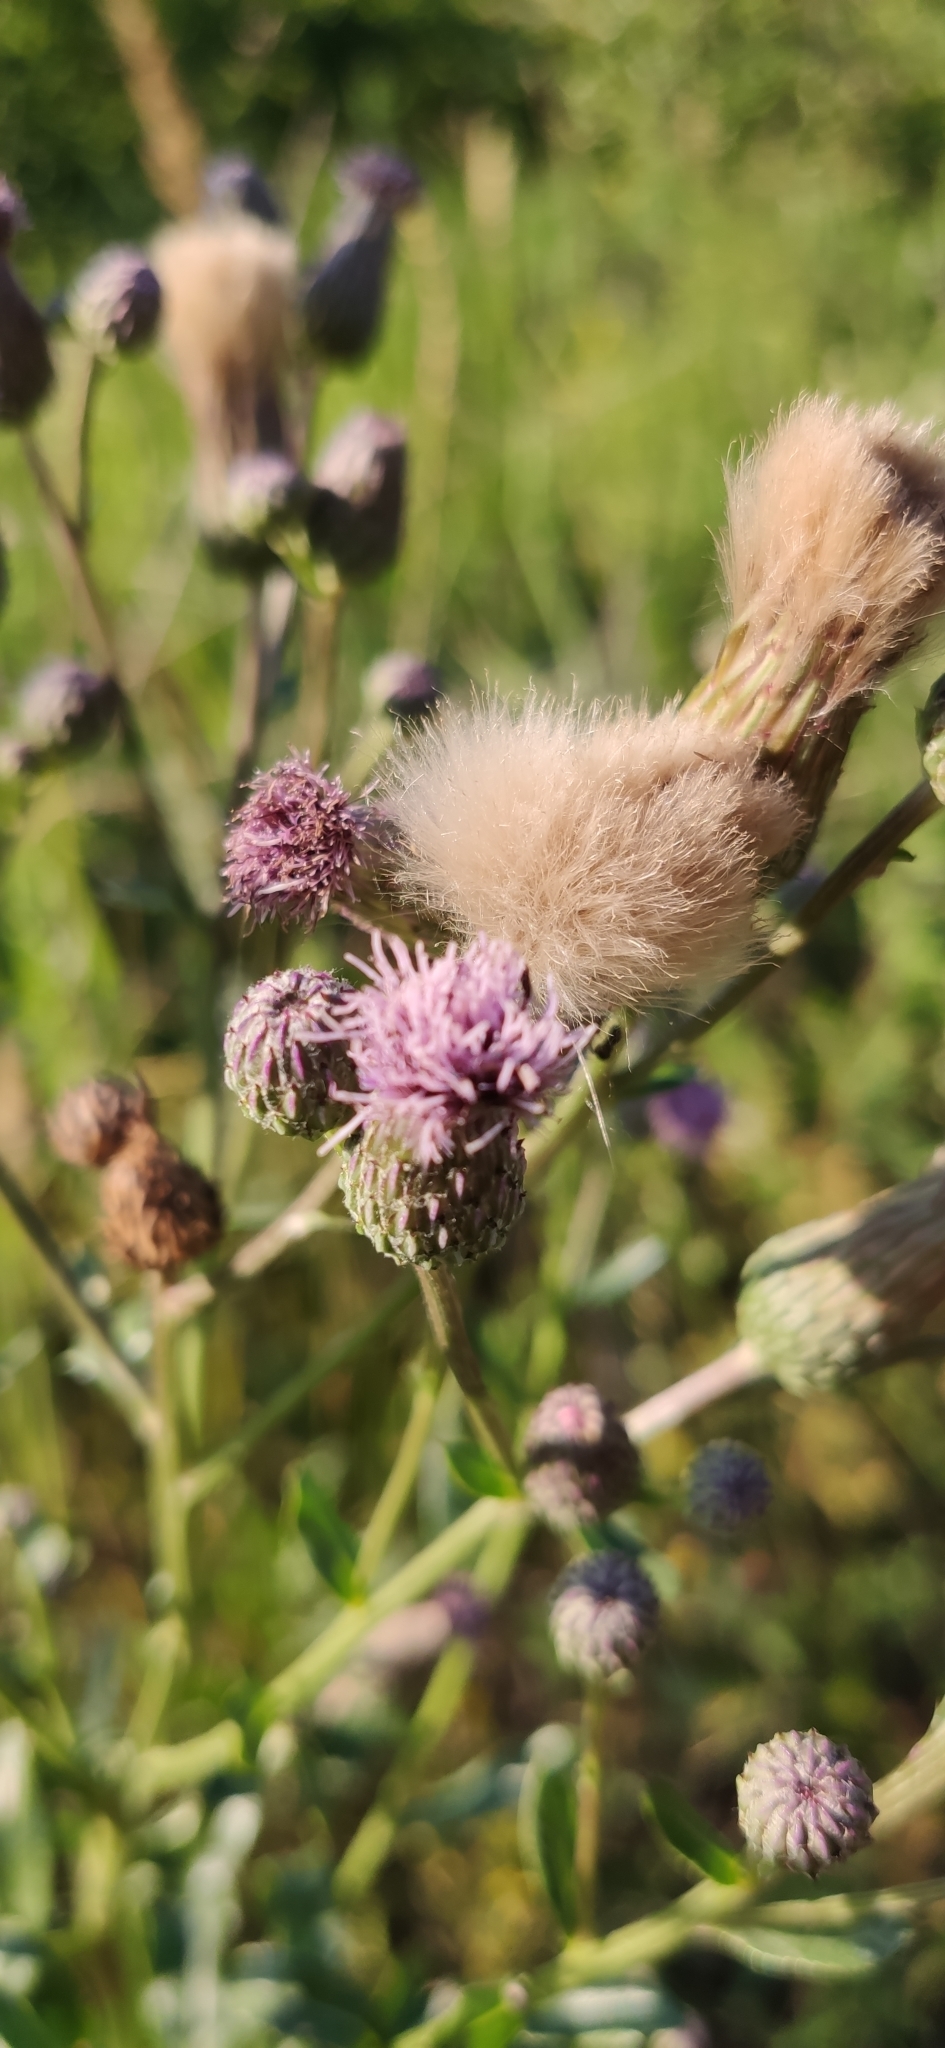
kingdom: Plantae
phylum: Tracheophyta
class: Magnoliopsida
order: Asterales
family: Asteraceae
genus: Cirsium
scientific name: Cirsium arvense
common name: Creeping thistle
